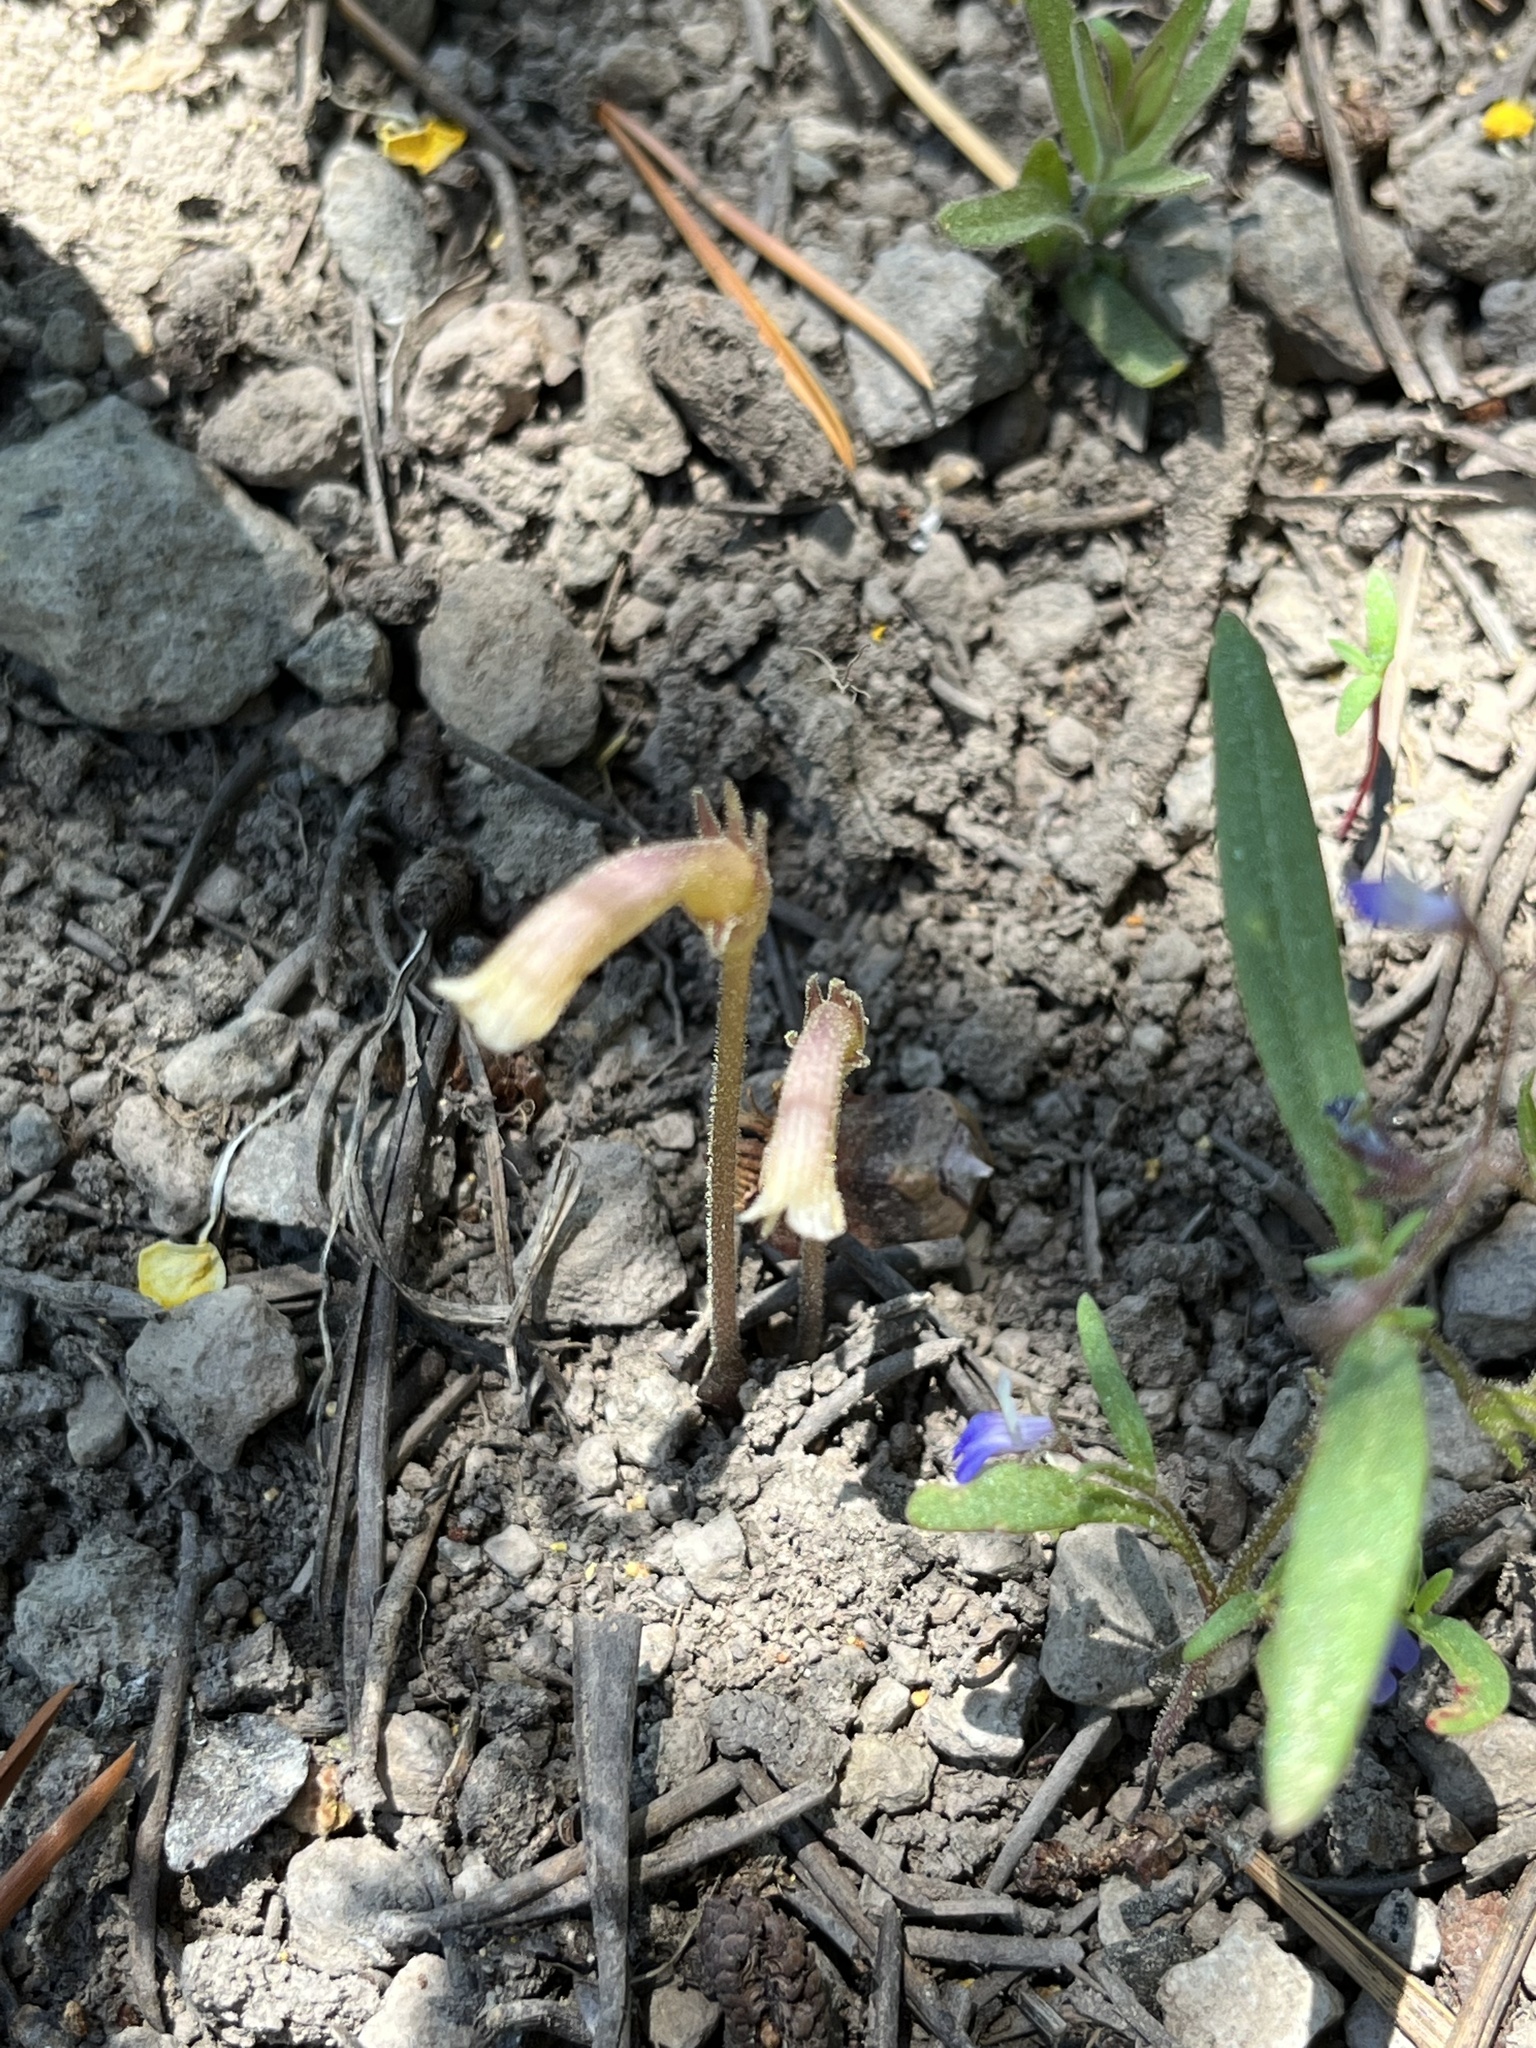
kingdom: Plantae
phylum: Tracheophyta
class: Magnoliopsida
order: Lamiales
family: Orobanchaceae
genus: Aphyllon
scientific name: Aphyllon uniflorum
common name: One-flowered broomrape
